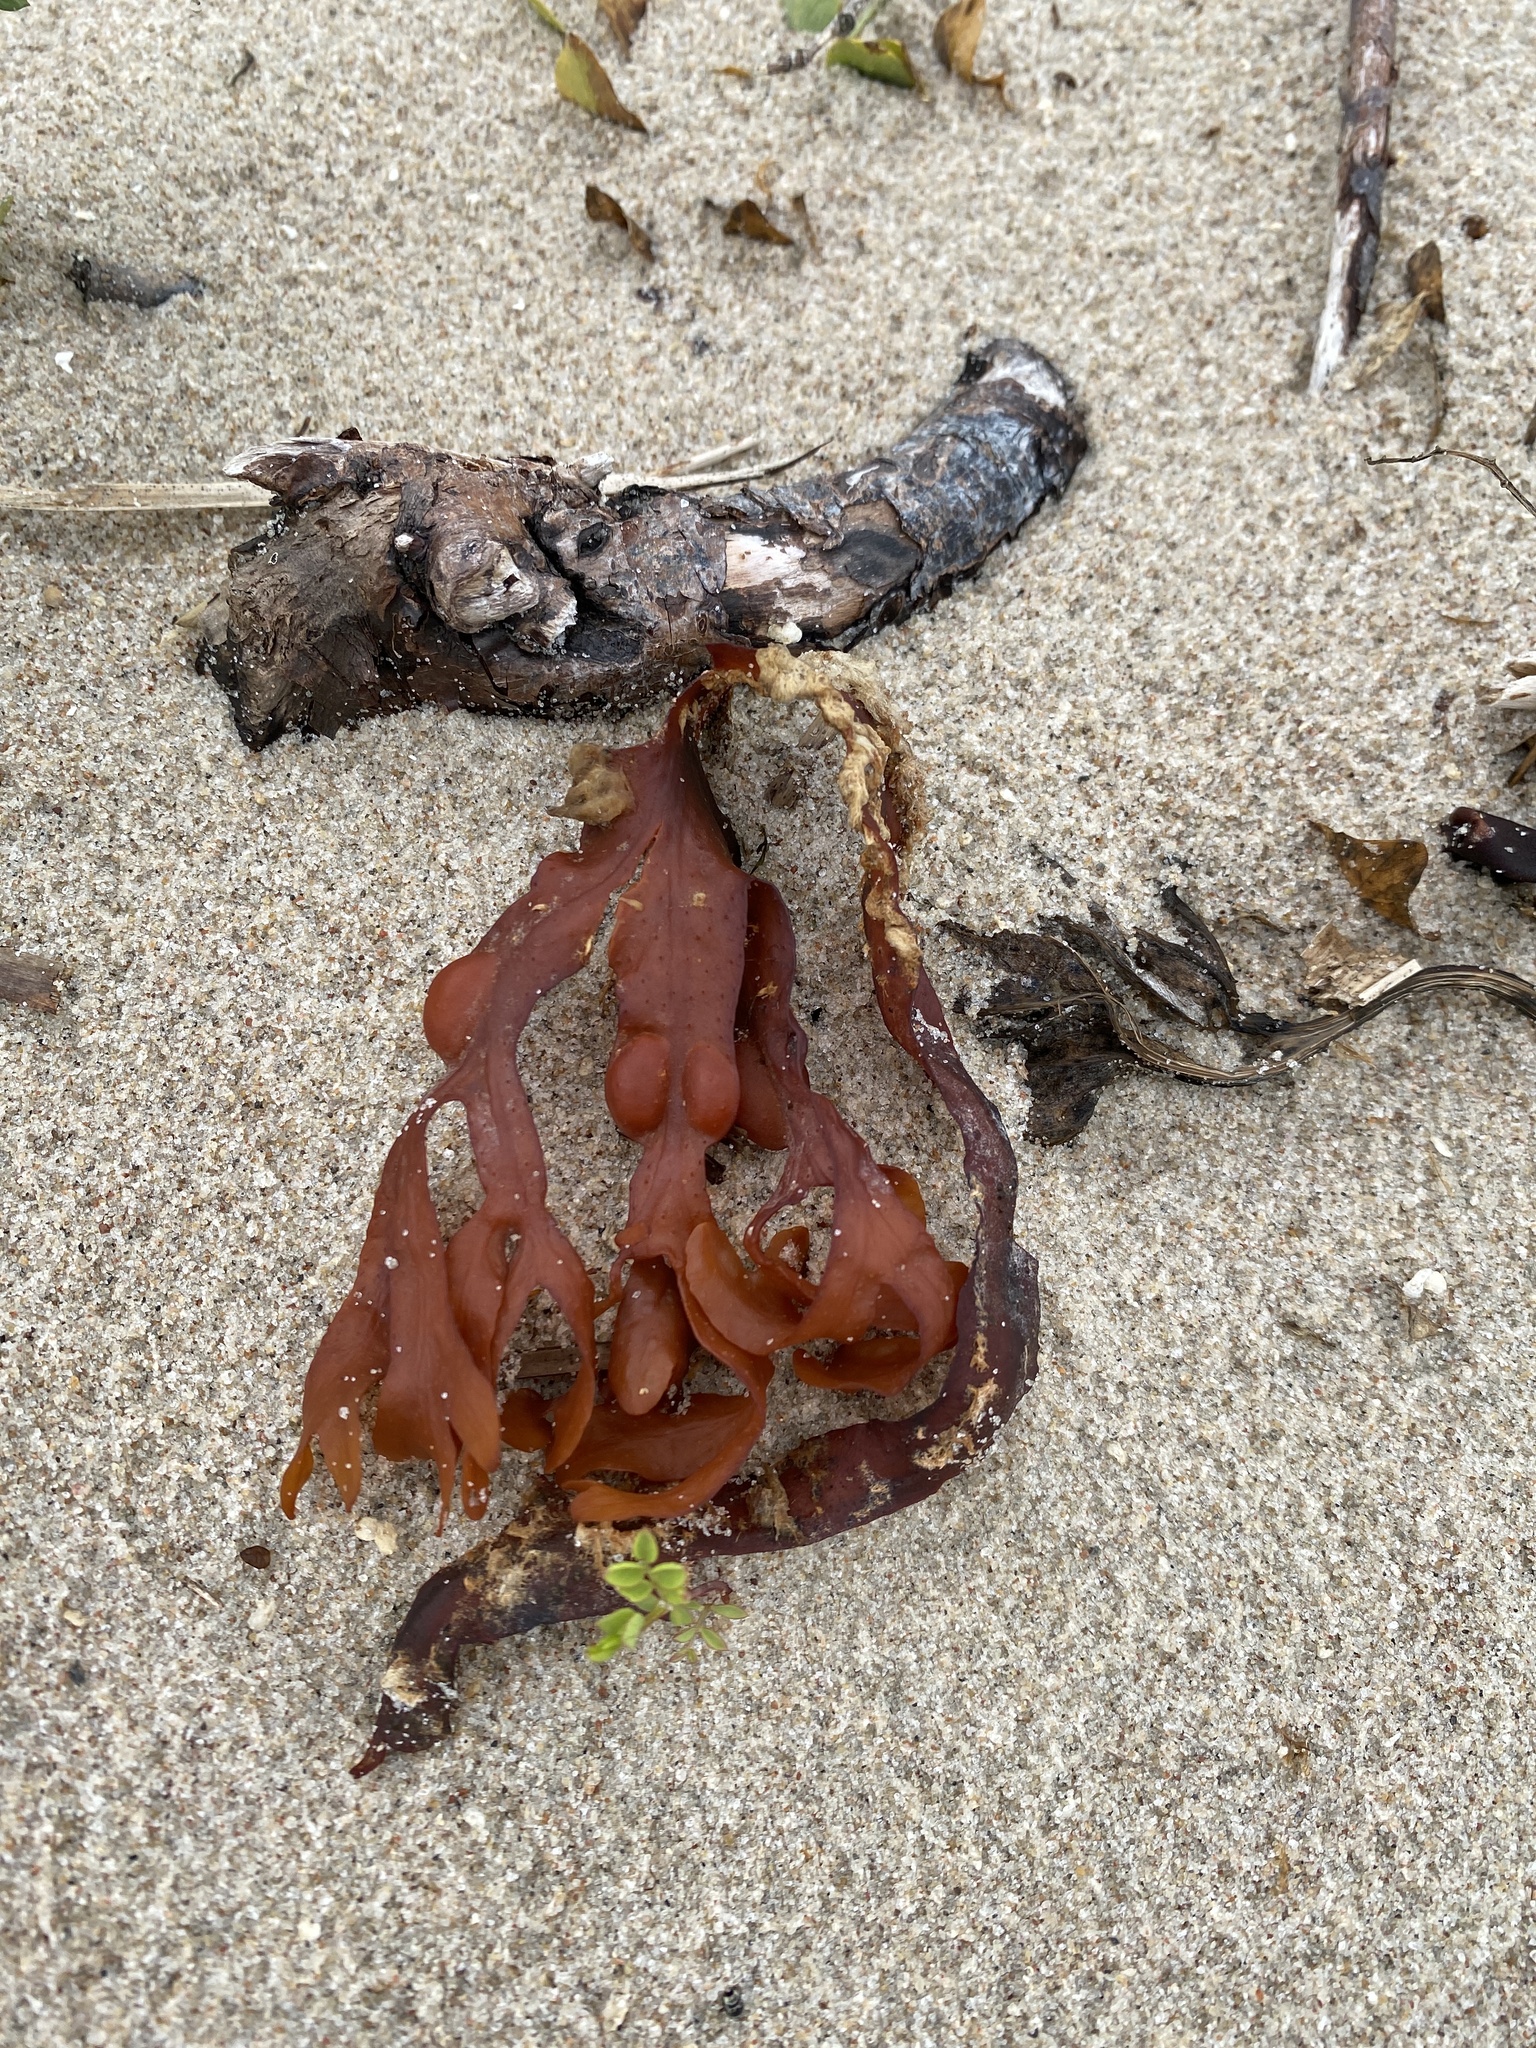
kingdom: Chromista
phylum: Ochrophyta
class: Phaeophyceae
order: Fucales
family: Fucaceae
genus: Fucus
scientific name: Fucus vesiculosus
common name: Bladder wrack
